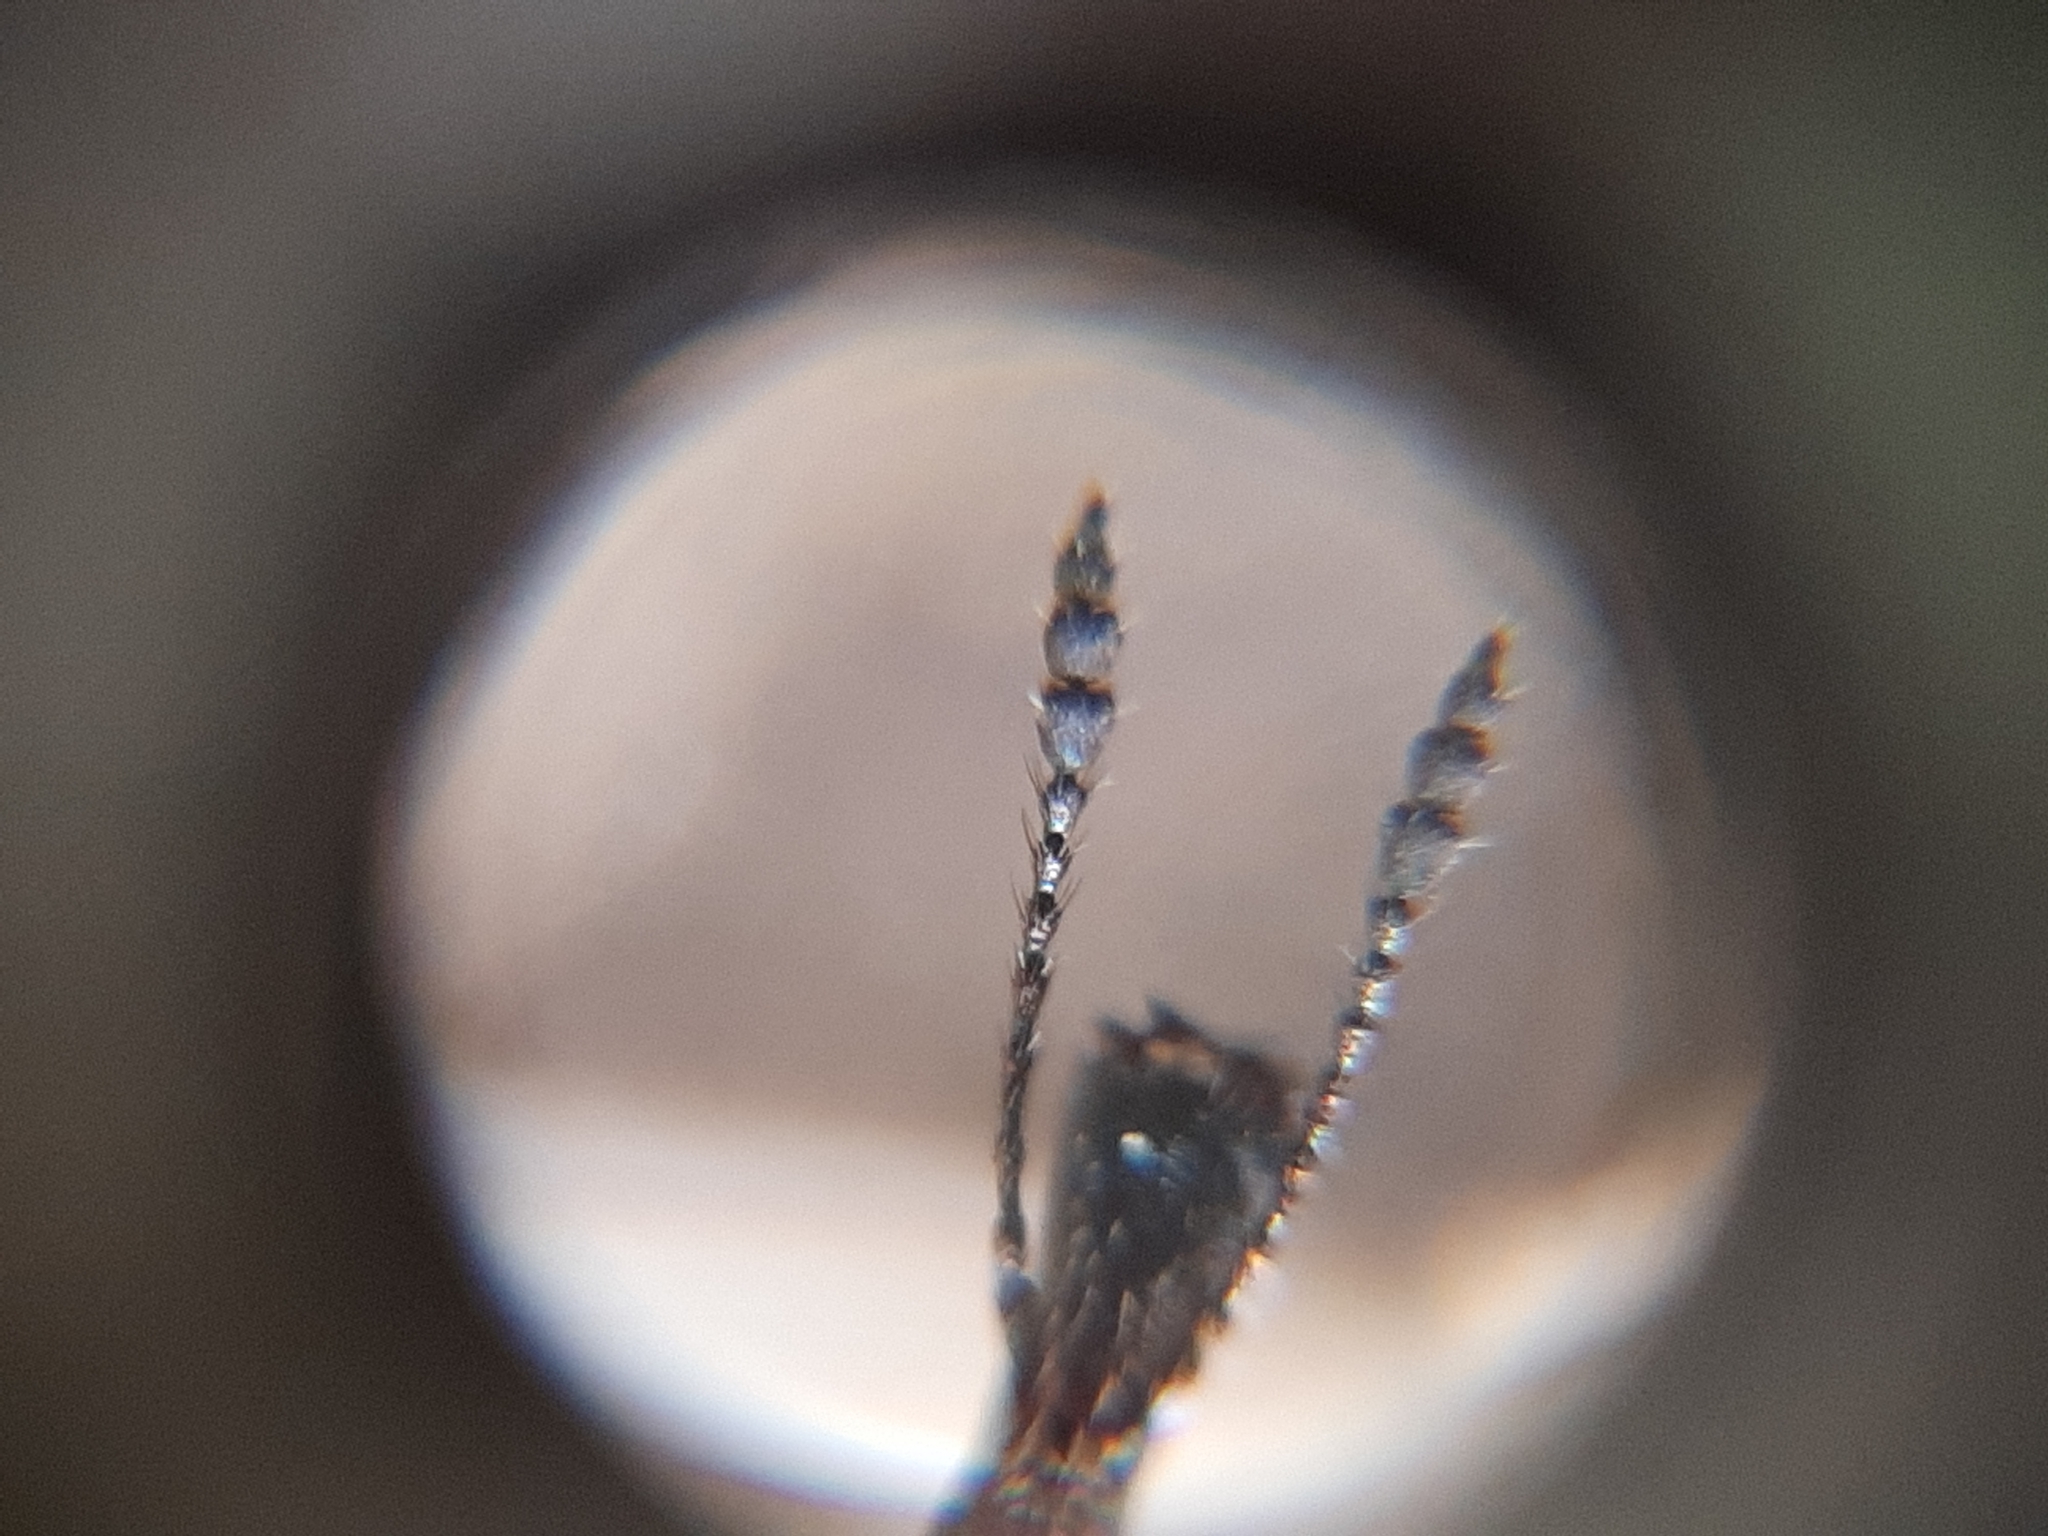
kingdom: Animalia
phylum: Arthropoda
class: Insecta
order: Coleoptera
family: Attelabidae
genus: Rhynchites
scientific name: Rhynchites auratus
